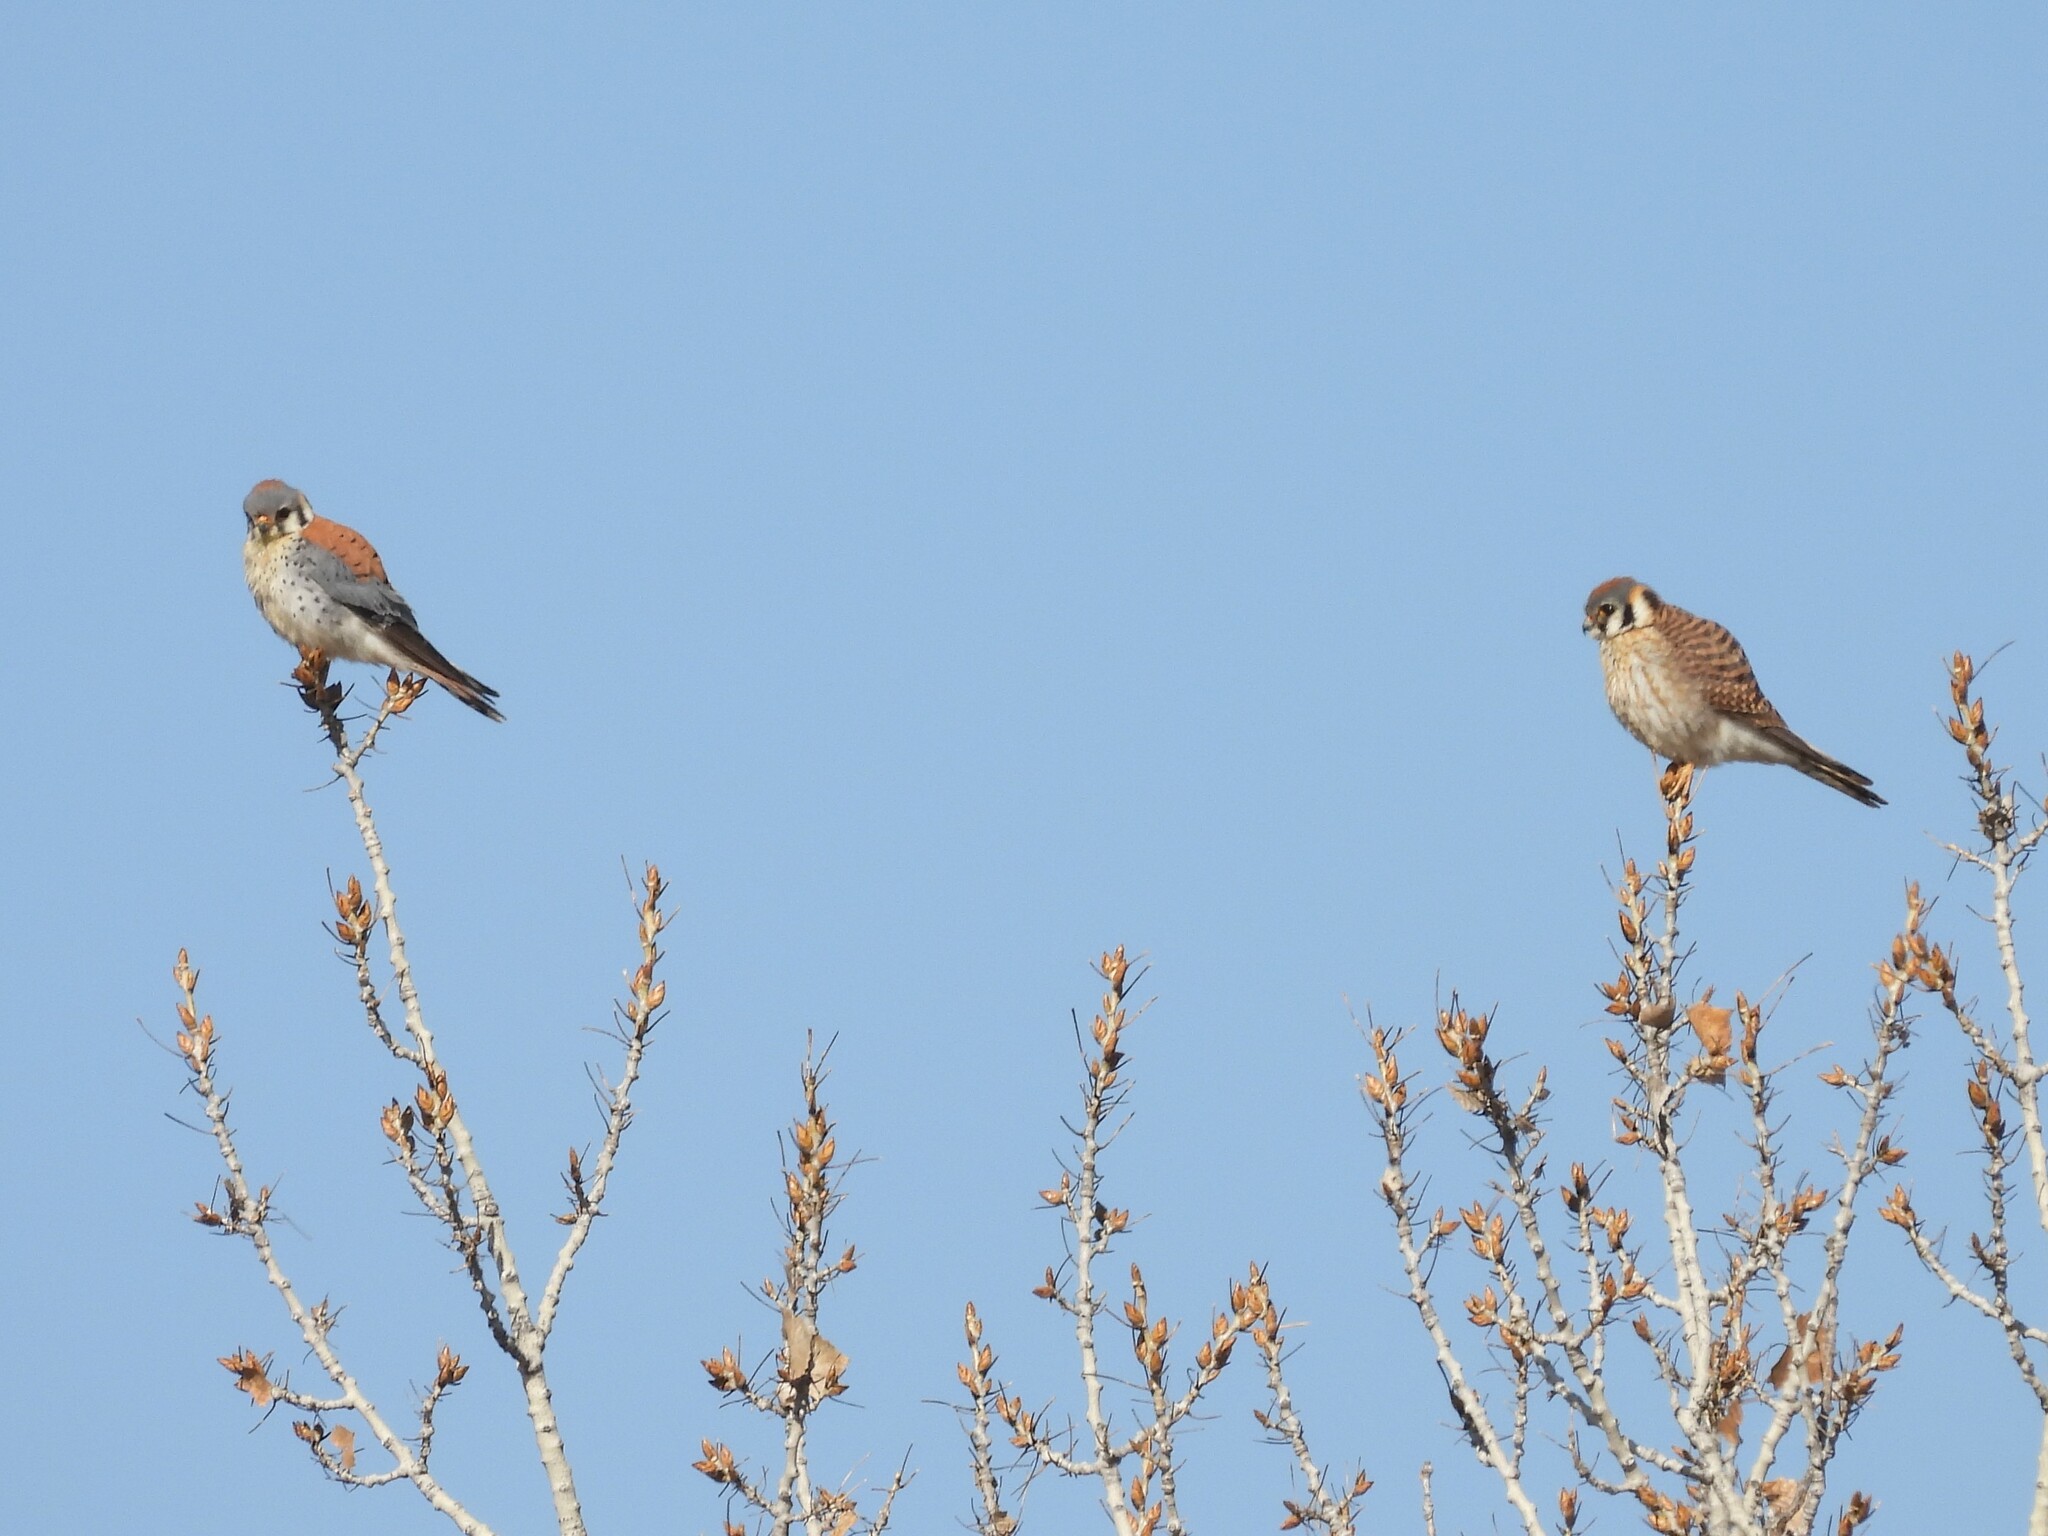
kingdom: Animalia
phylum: Chordata
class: Aves
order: Falconiformes
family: Falconidae
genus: Falco
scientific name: Falco sparverius
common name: American kestrel
